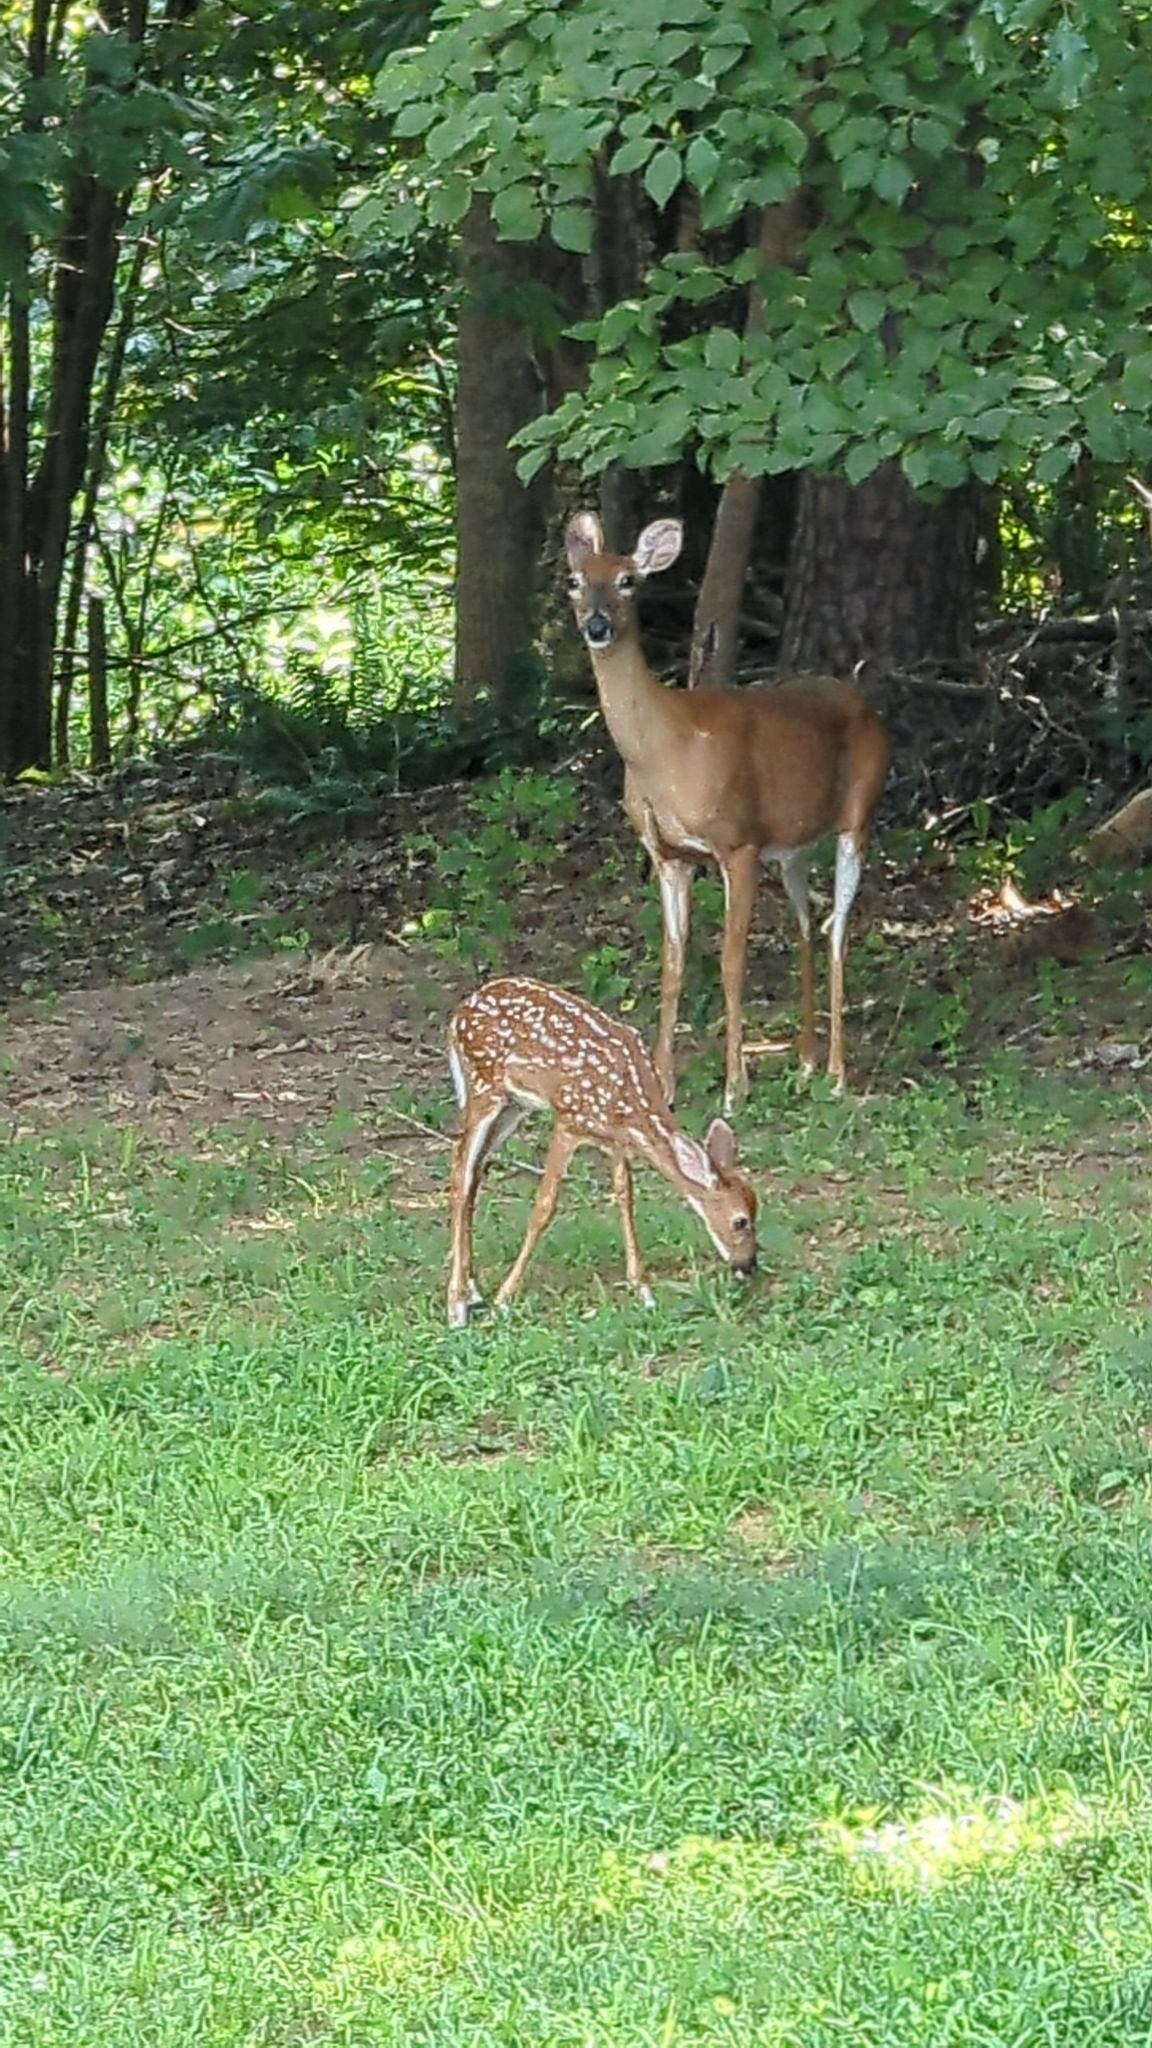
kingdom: Animalia
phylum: Chordata
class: Mammalia
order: Artiodactyla
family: Cervidae
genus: Odocoileus
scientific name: Odocoileus virginianus
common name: White-tailed deer
